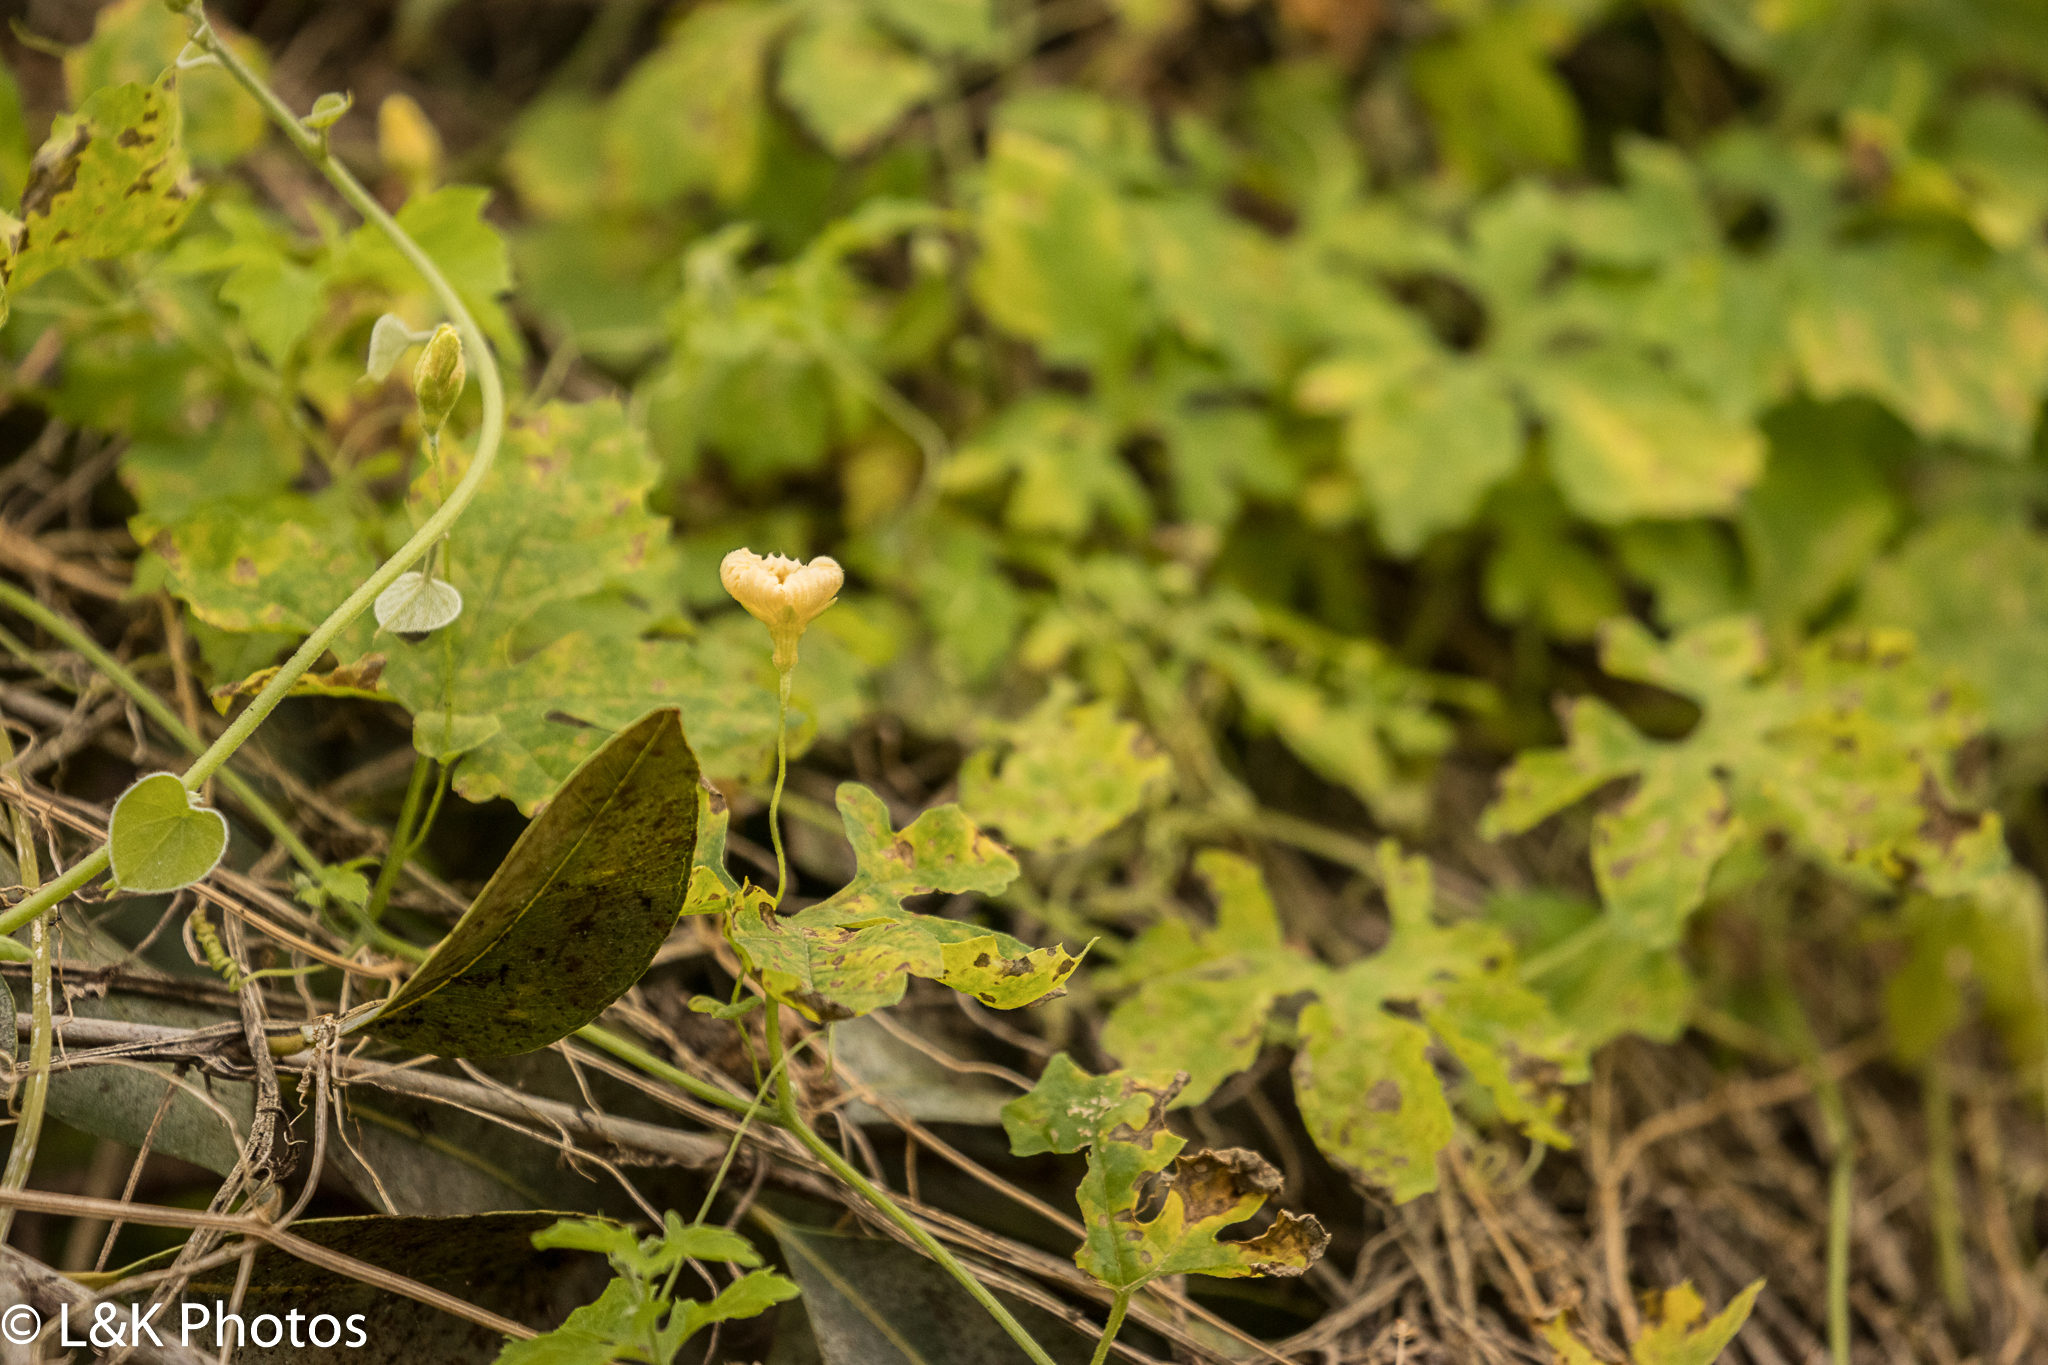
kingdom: Plantae
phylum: Tracheophyta
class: Magnoliopsida
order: Cucurbitales
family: Cucurbitaceae
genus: Momordica
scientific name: Momordica charantia
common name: Balsampear
